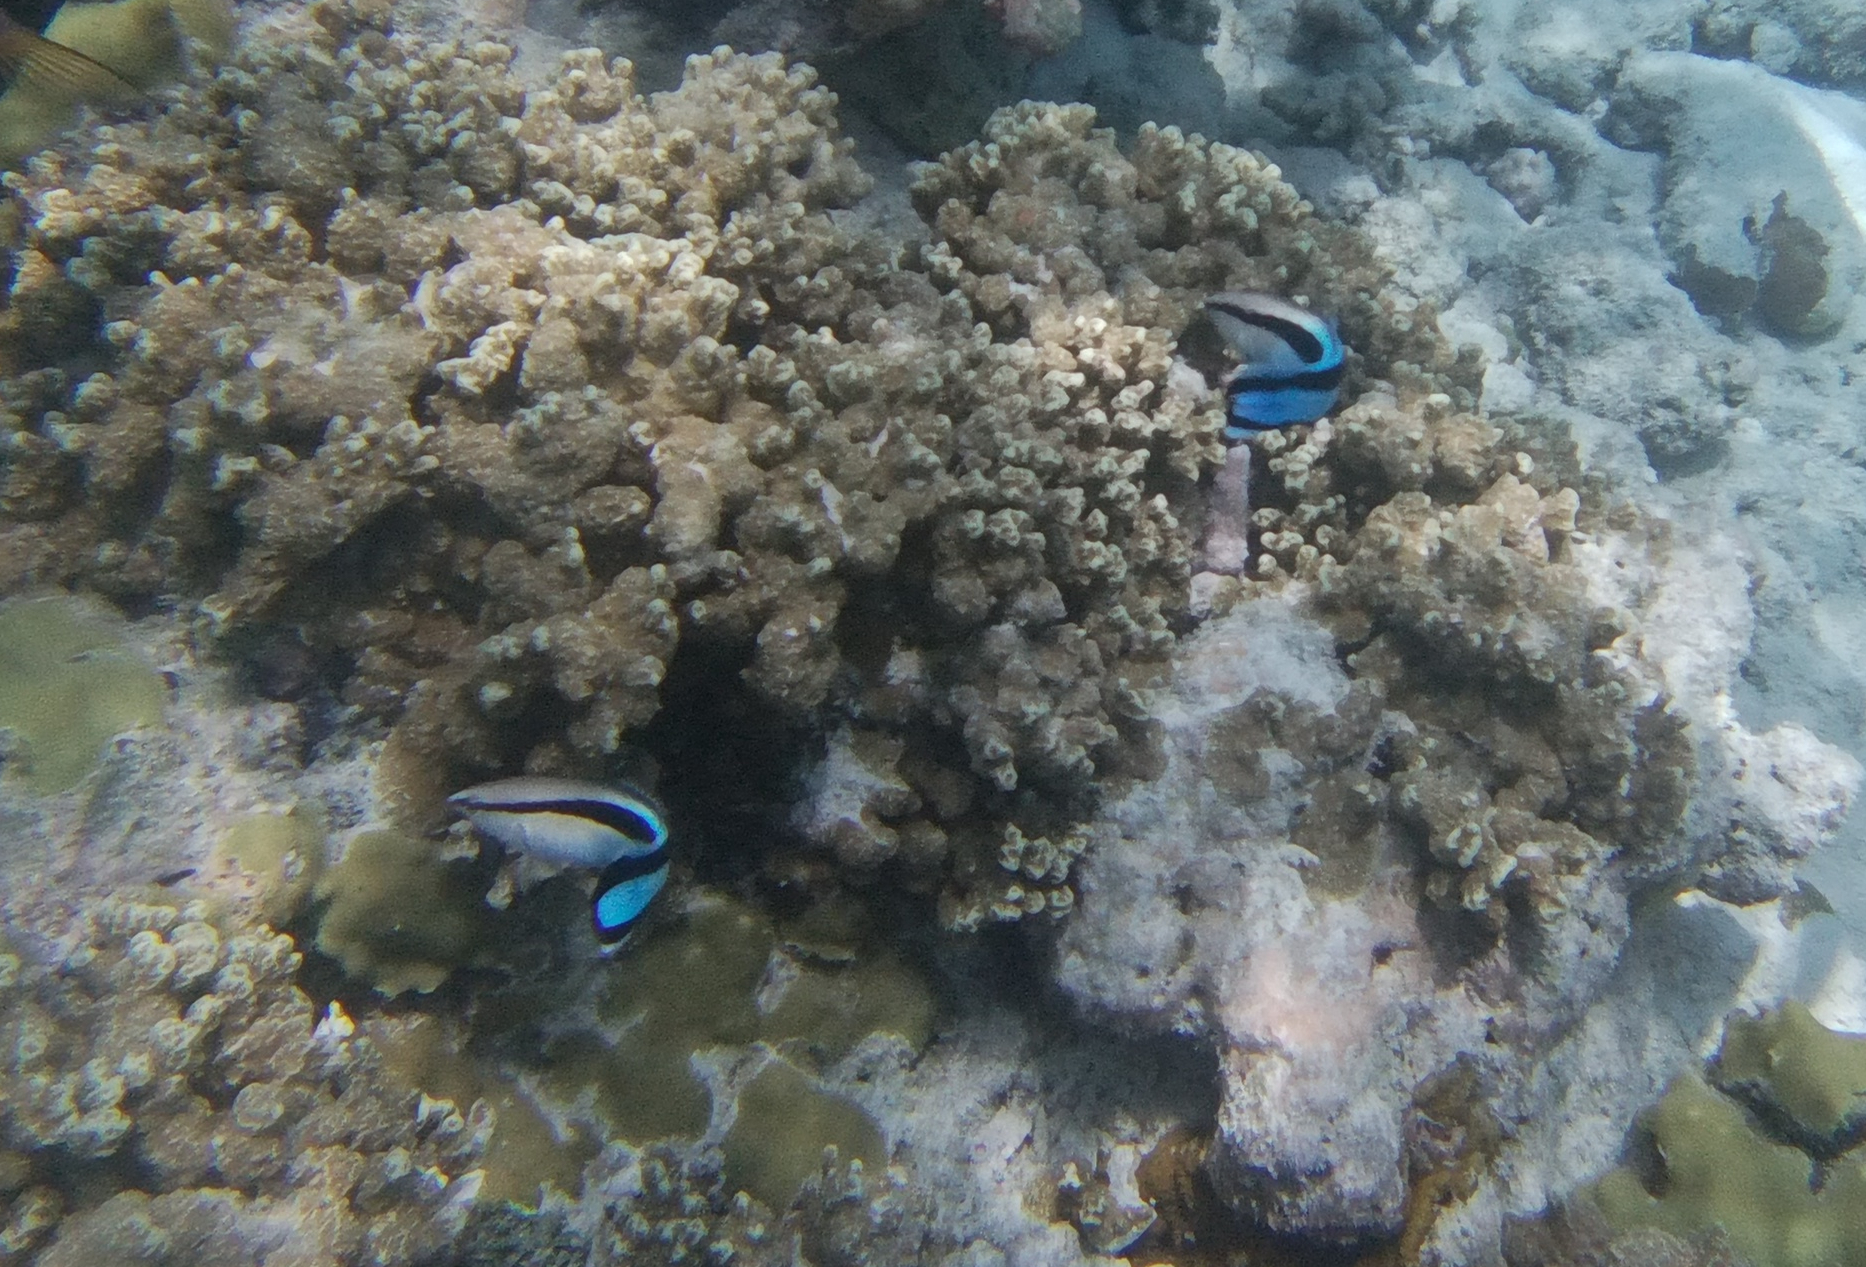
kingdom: Animalia
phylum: Chordata
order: Perciformes
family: Labridae
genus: Labroides
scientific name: Labroides dimidiatus
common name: Blue diesel wrasse
